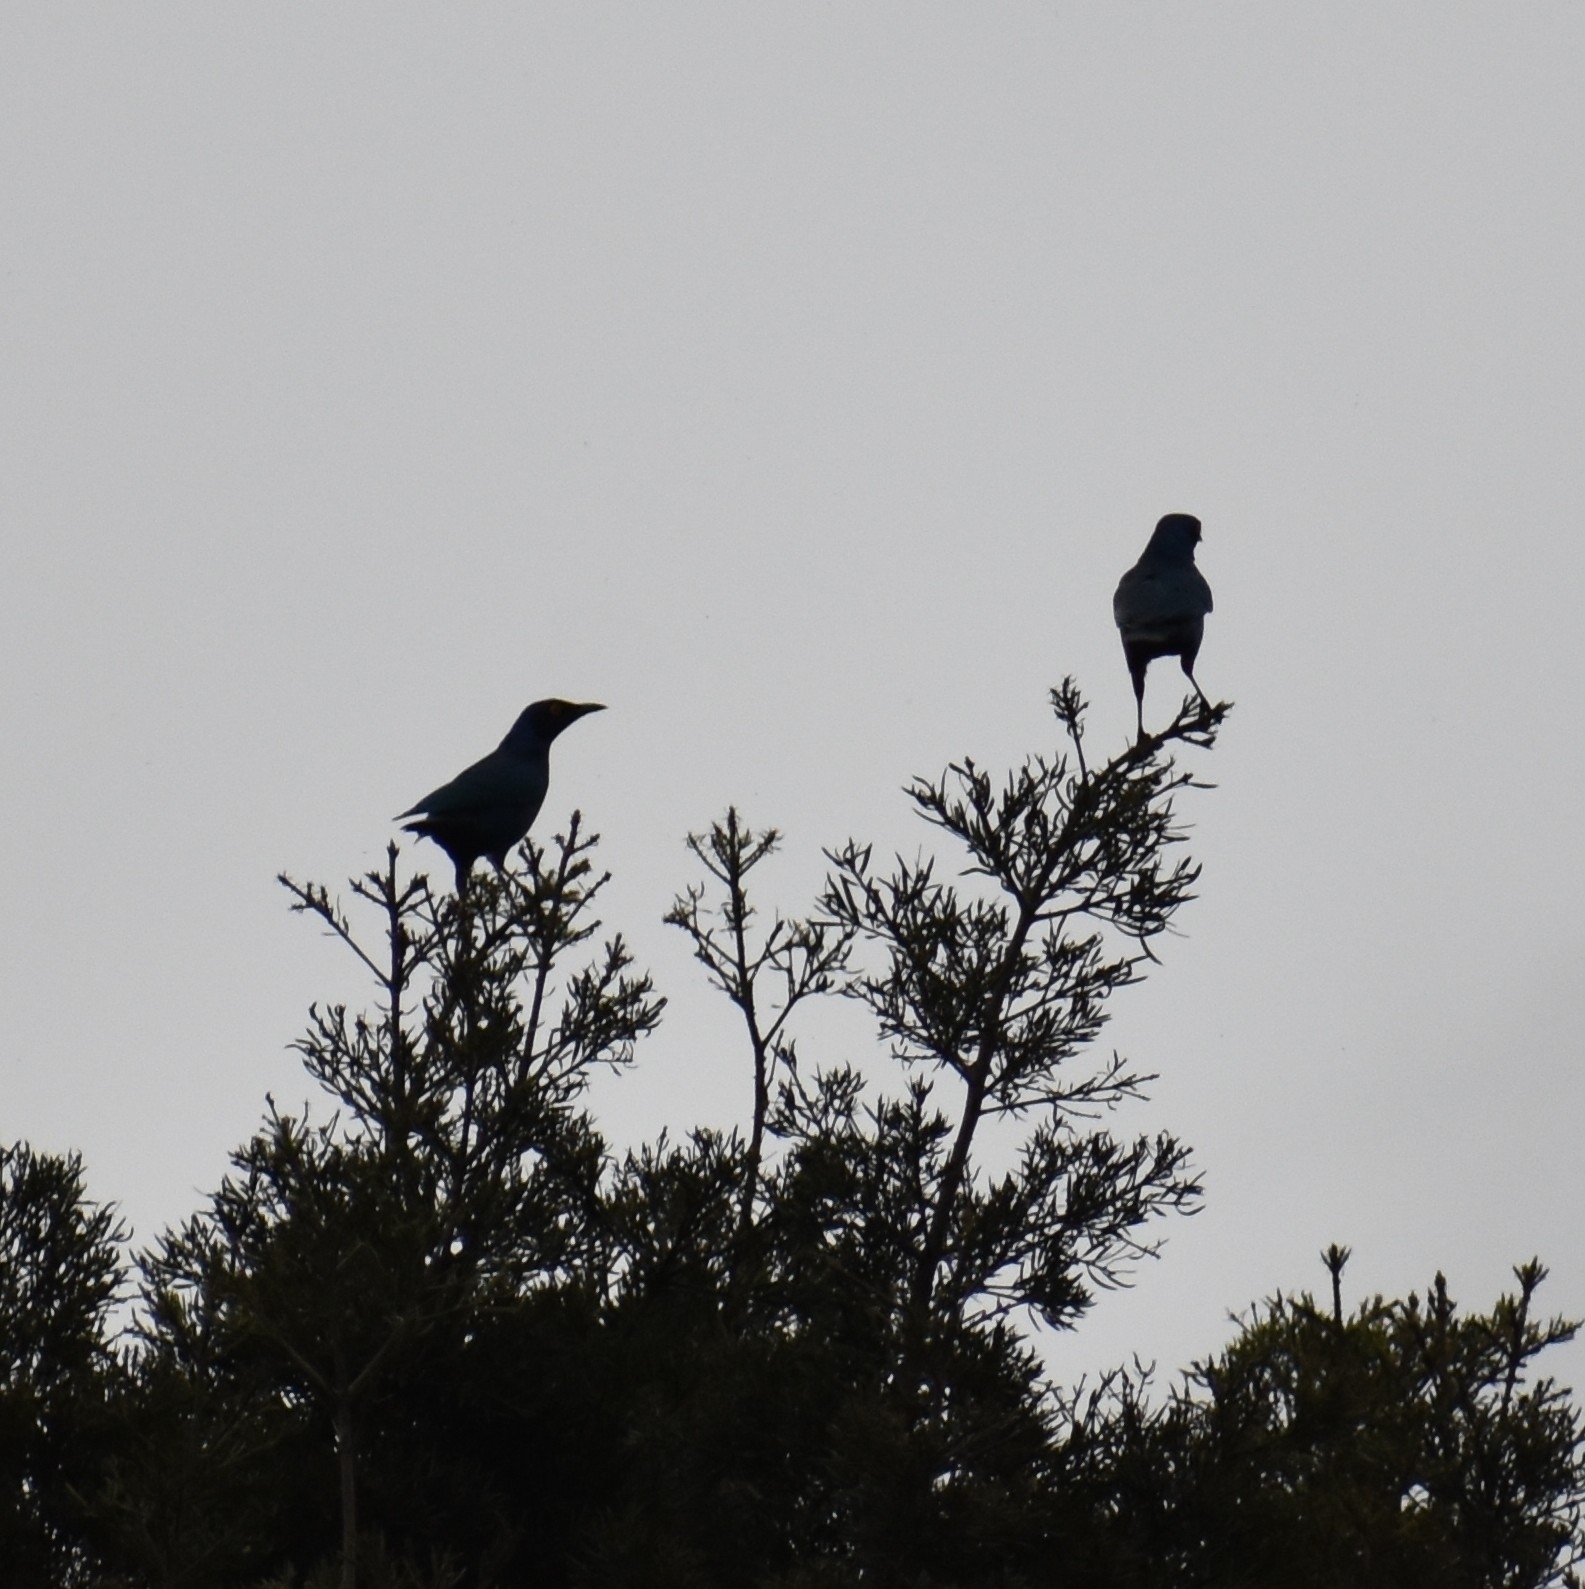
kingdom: Animalia
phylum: Chordata
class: Aves
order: Passeriformes
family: Sturnidae
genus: Lamprotornis
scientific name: Lamprotornis nitens
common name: Cape starling
